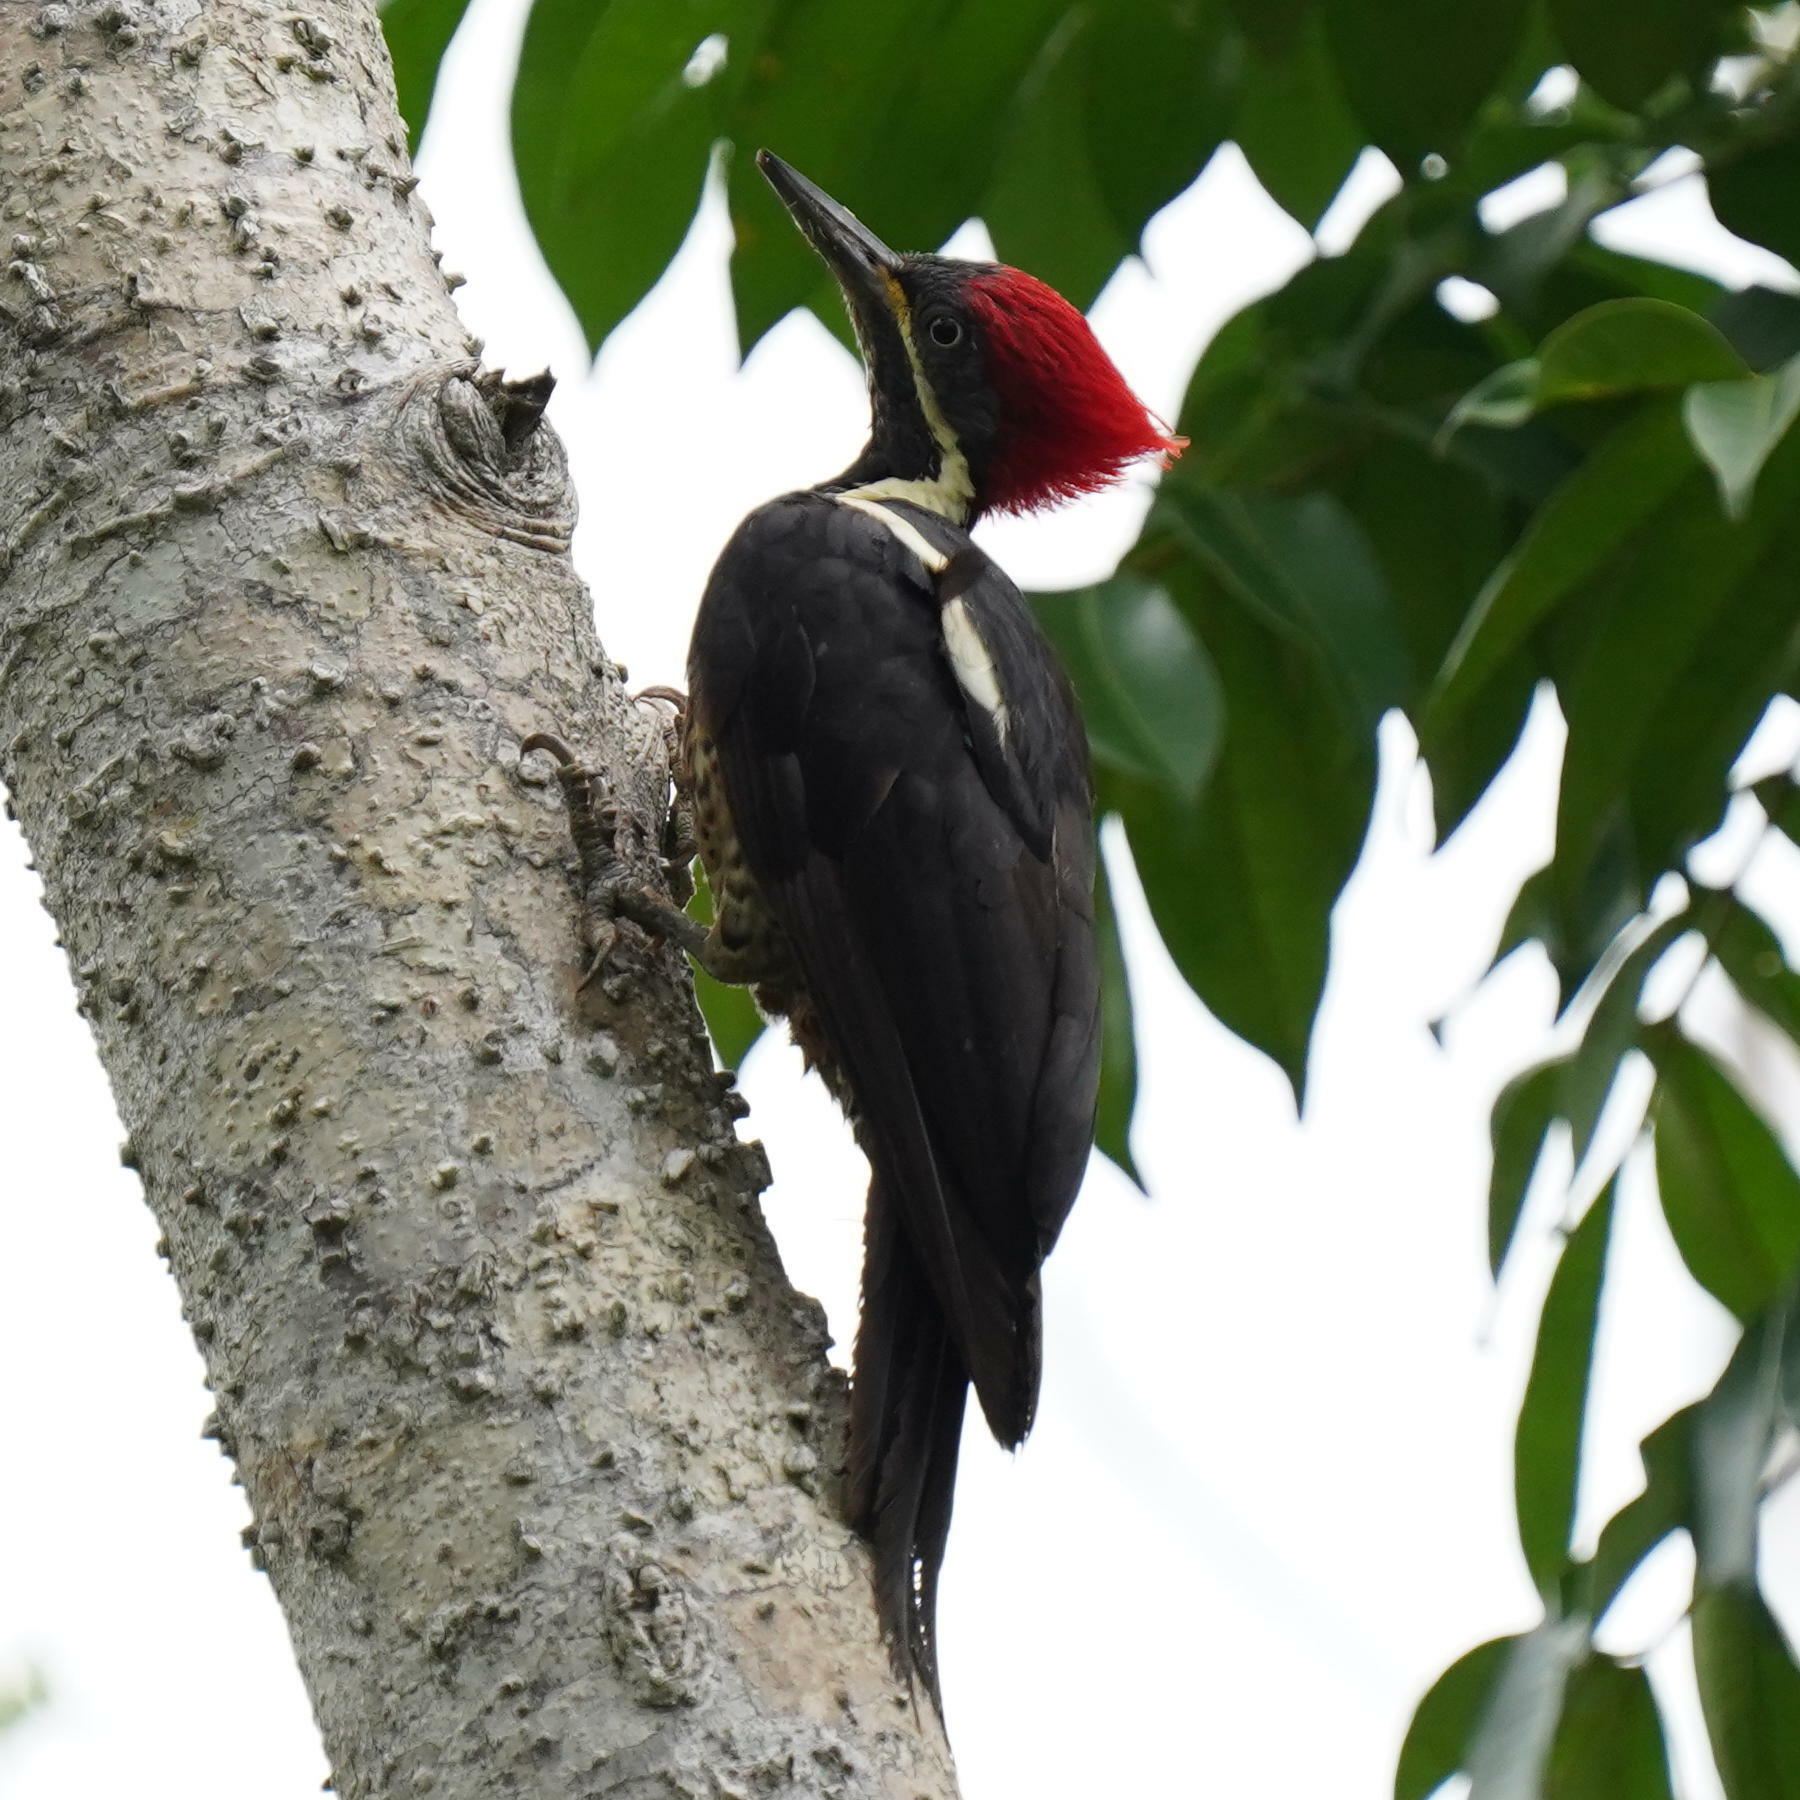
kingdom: Animalia
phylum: Chordata
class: Aves
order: Piciformes
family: Picidae
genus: Dryocopus
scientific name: Dryocopus lineatus
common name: Lineated woodpecker
